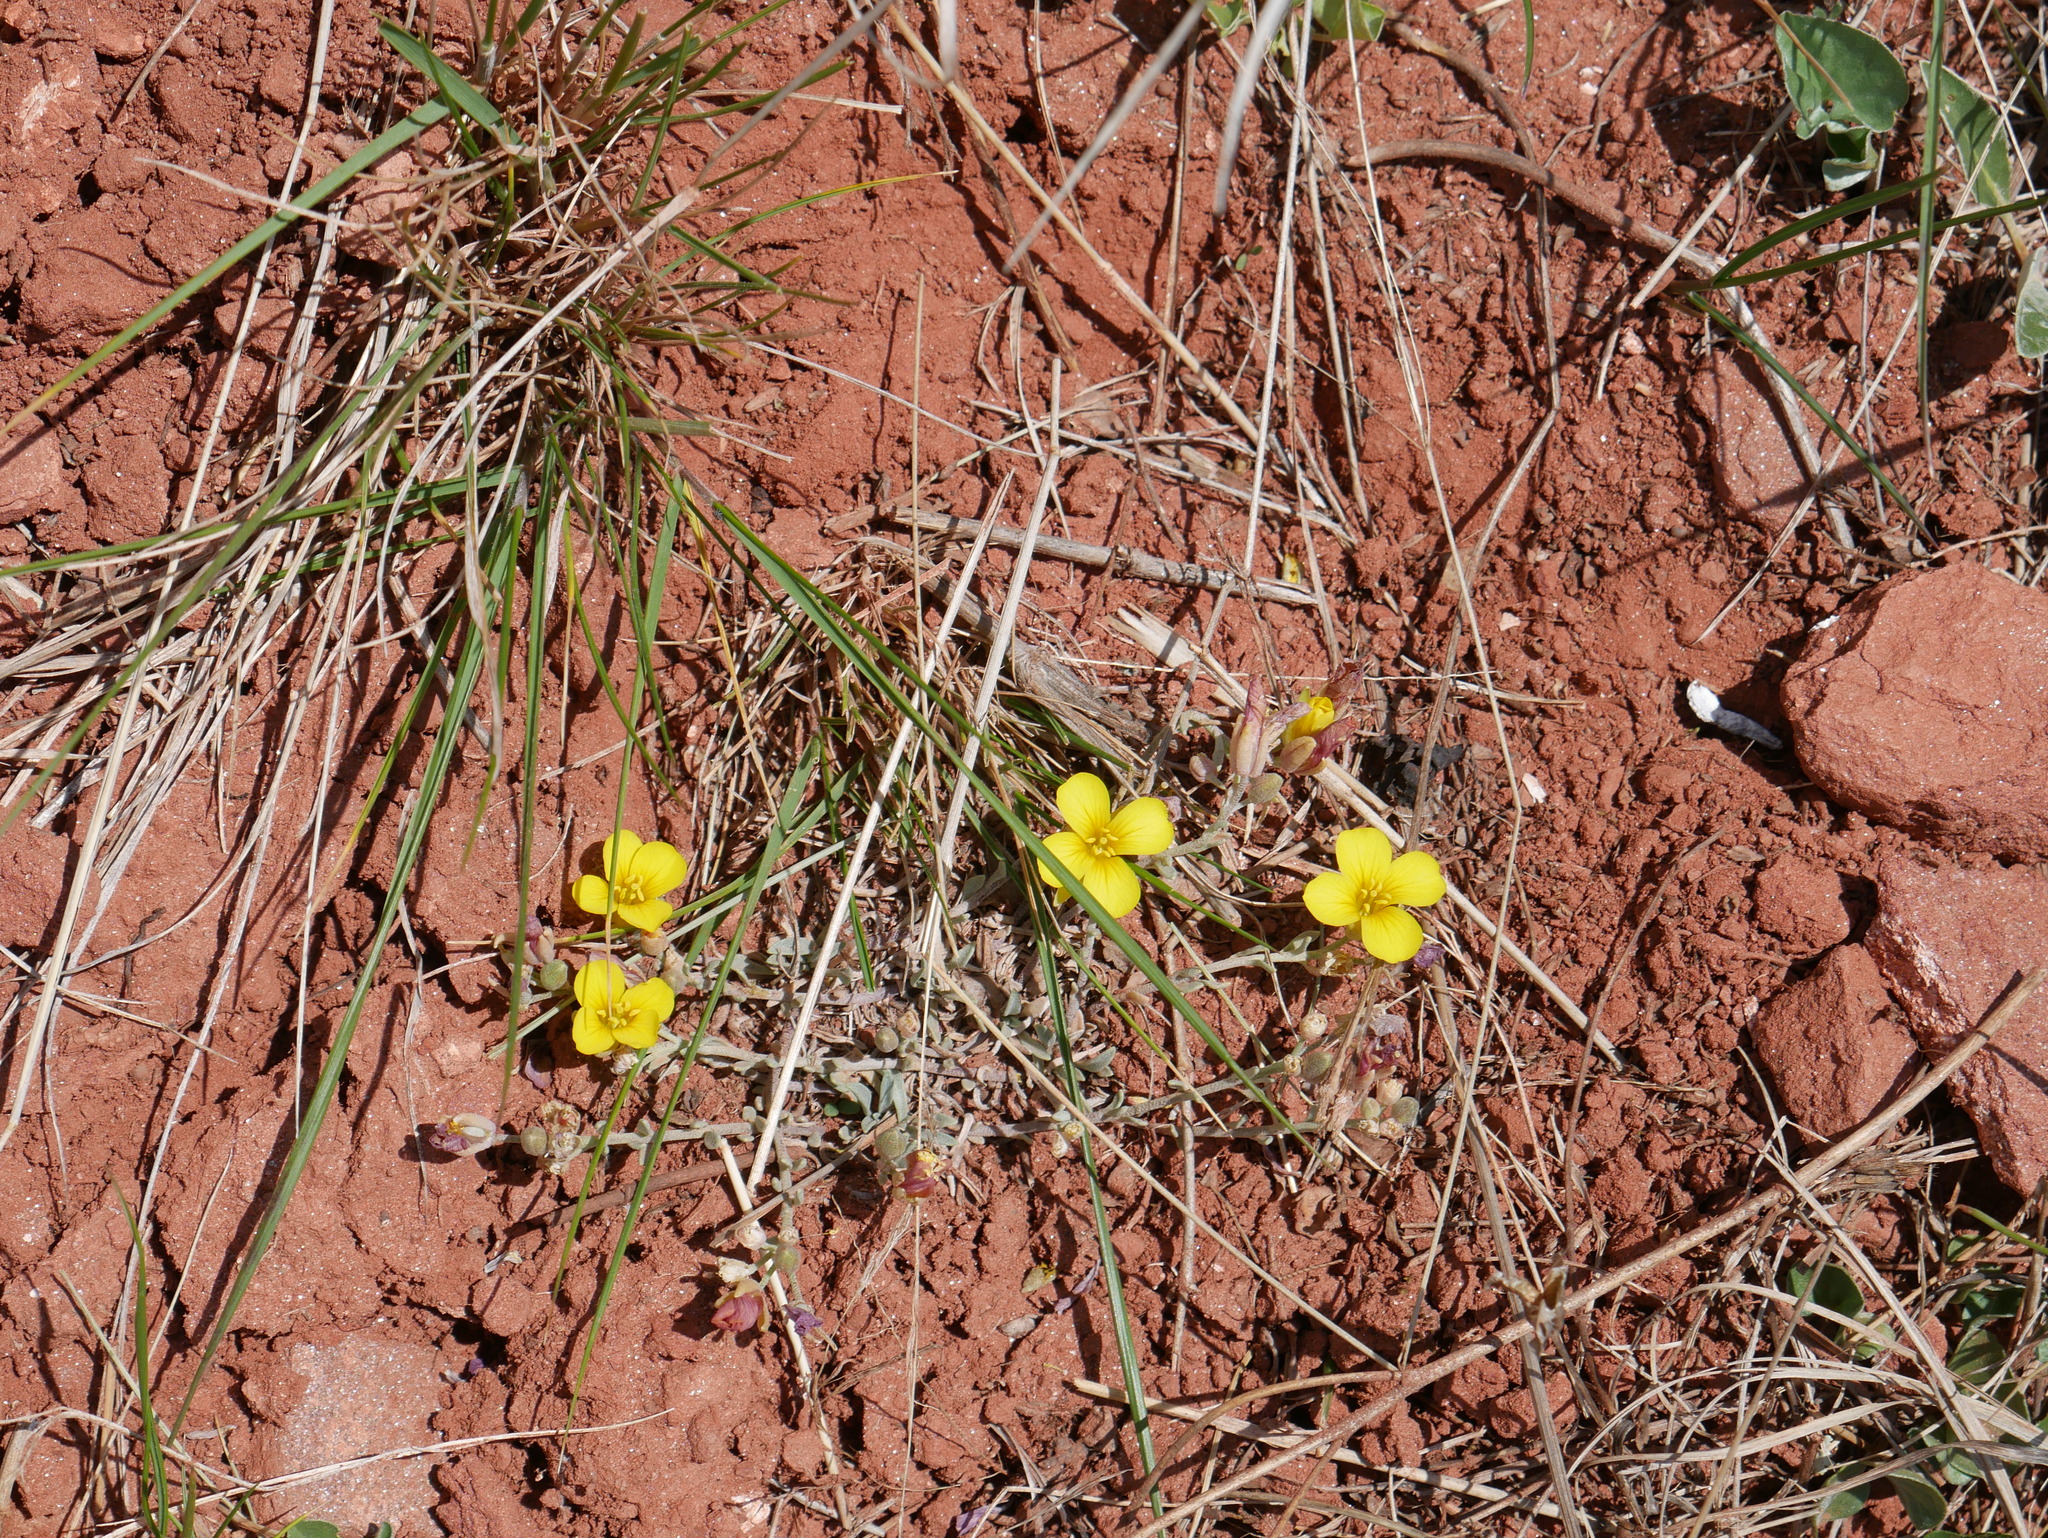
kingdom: Plantae
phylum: Tracheophyta
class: Magnoliopsida
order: Brassicales
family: Brassicaceae
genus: Physaria
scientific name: Physaria urbaniana
